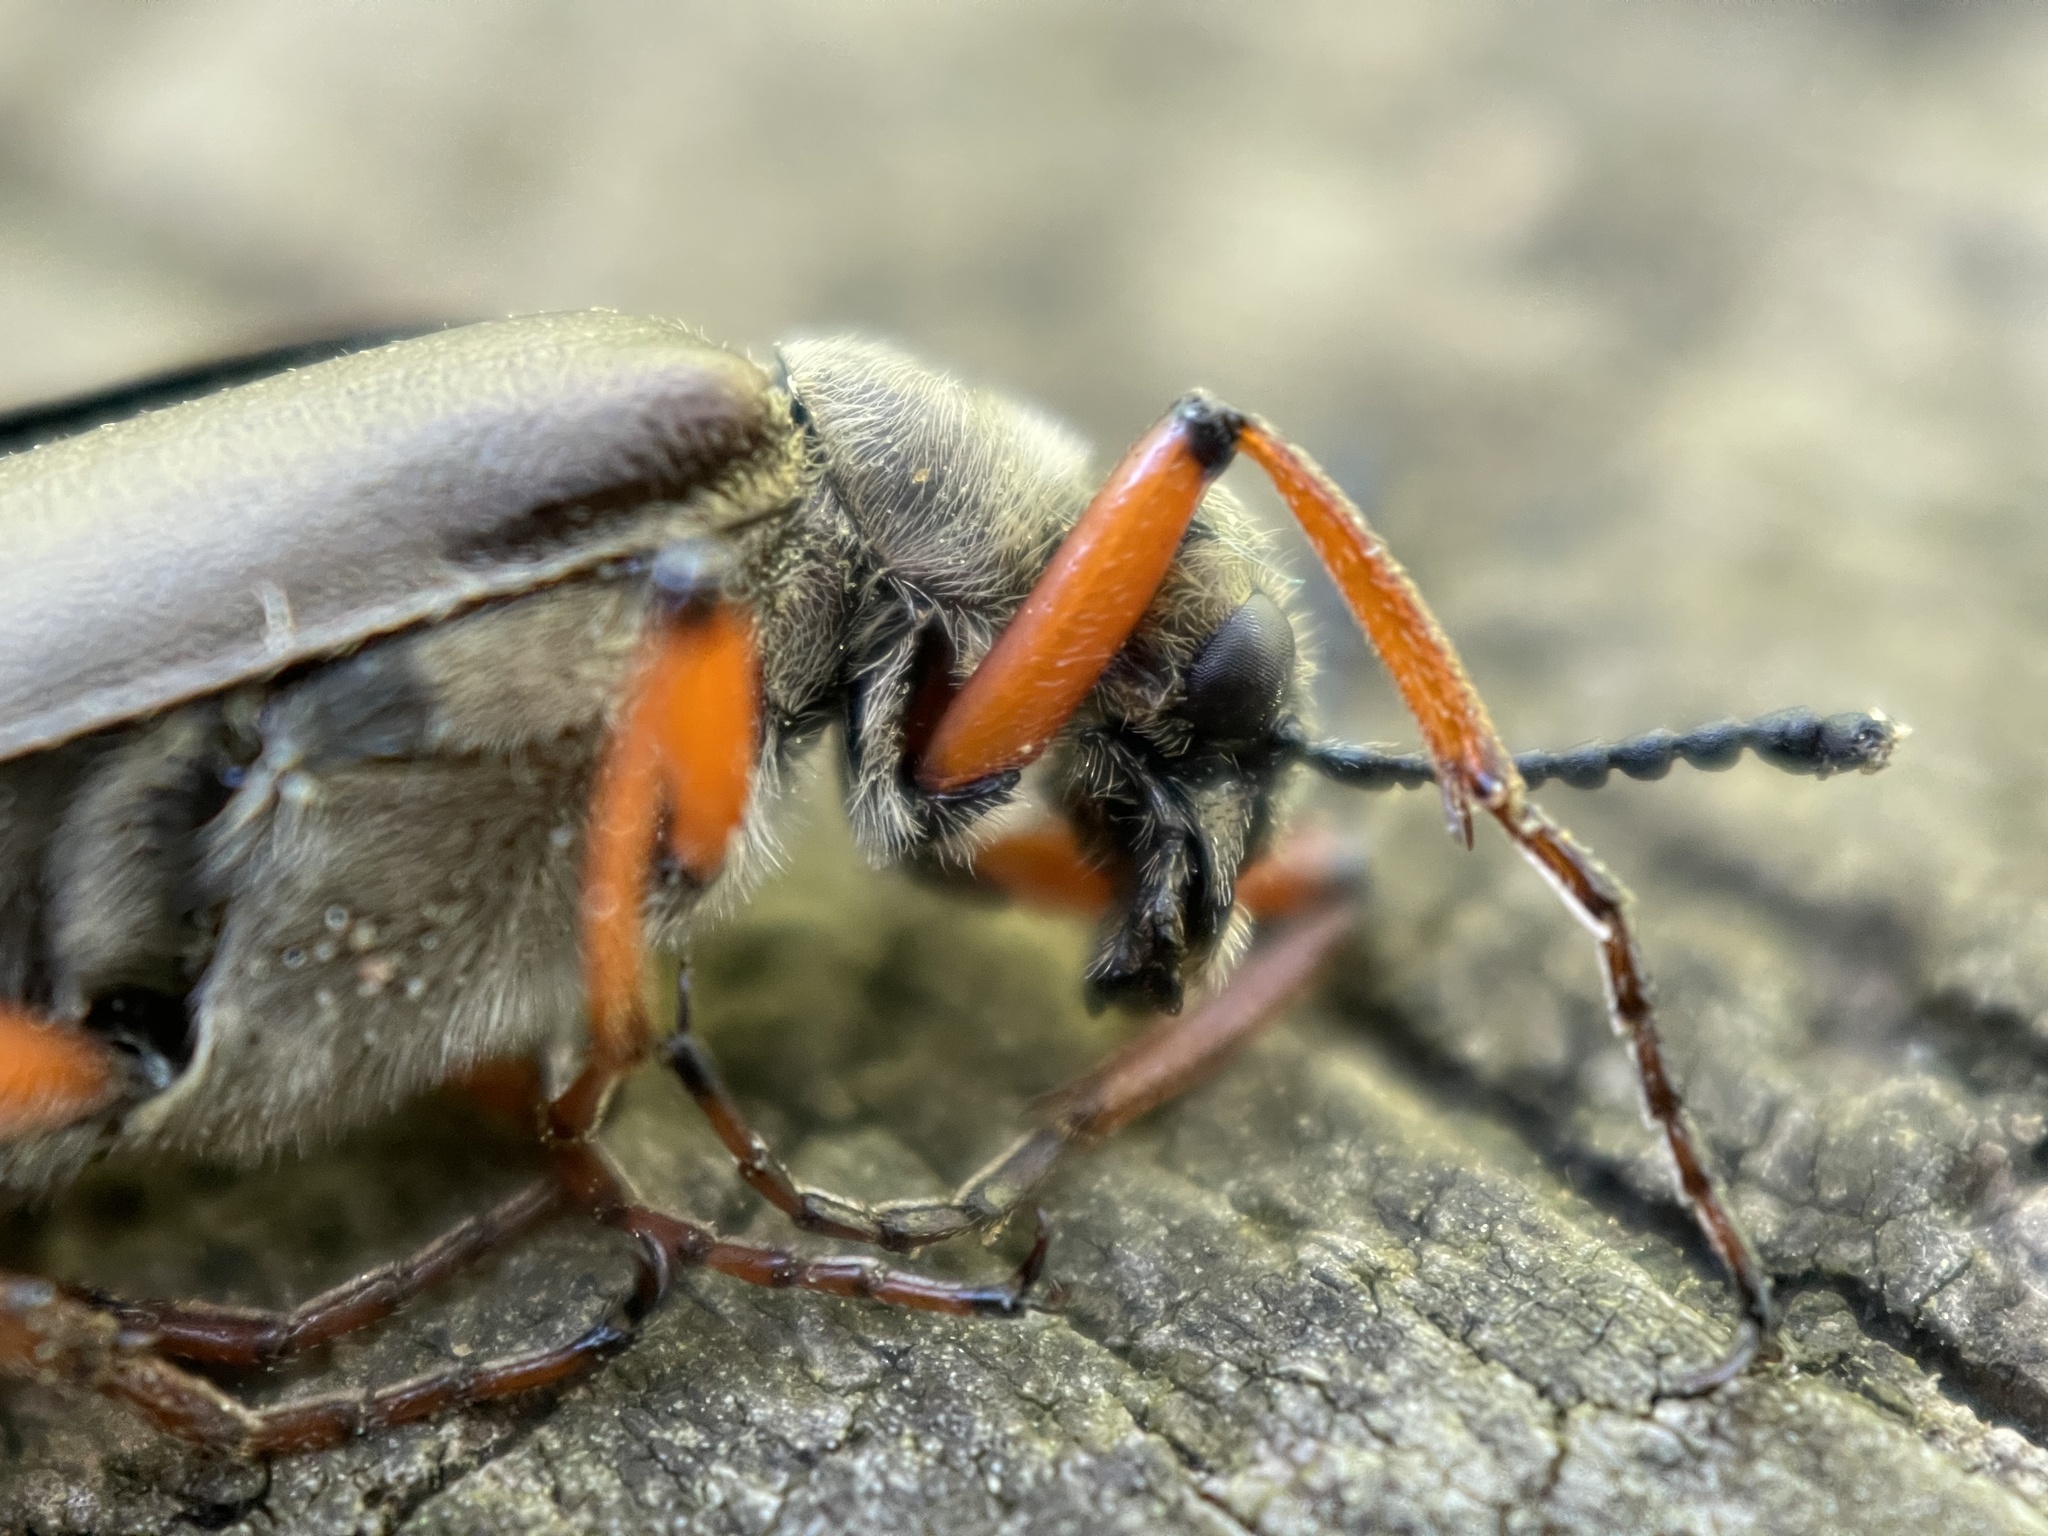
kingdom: Animalia
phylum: Arthropoda
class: Insecta
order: Coleoptera
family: Meloidae
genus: Lytta
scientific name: Lytta aenea
